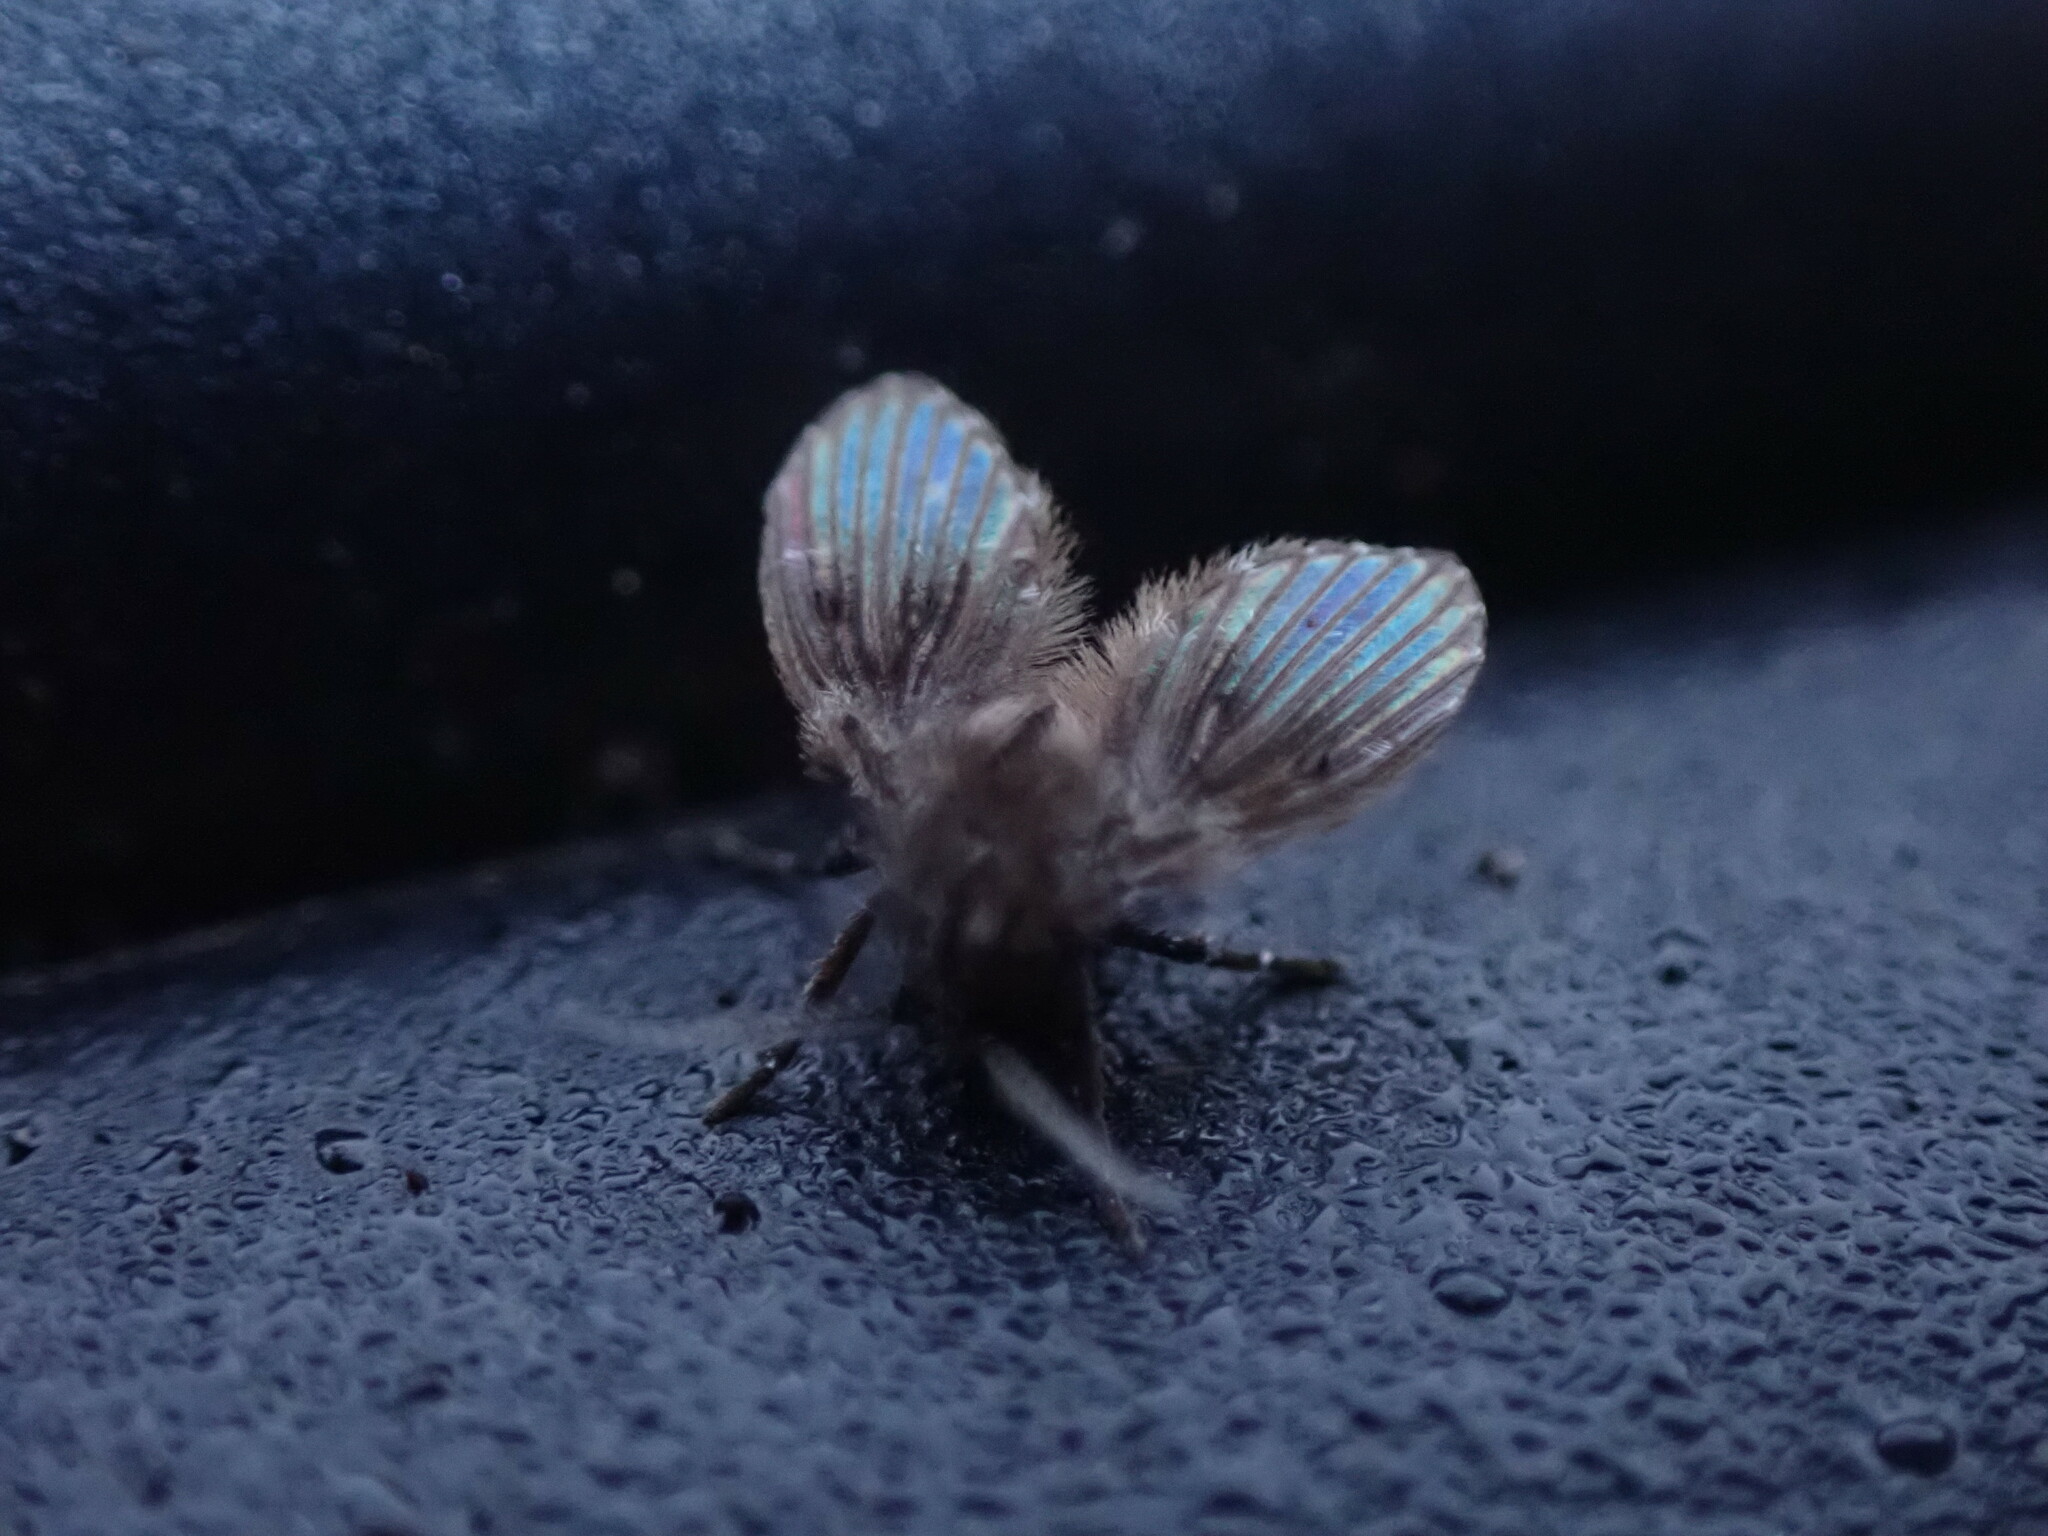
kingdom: Animalia
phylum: Arthropoda
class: Insecta
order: Diptera
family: Psychodidae
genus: Clogmia
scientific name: Clogmia albipunctatus
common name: White-spotted moth fly
